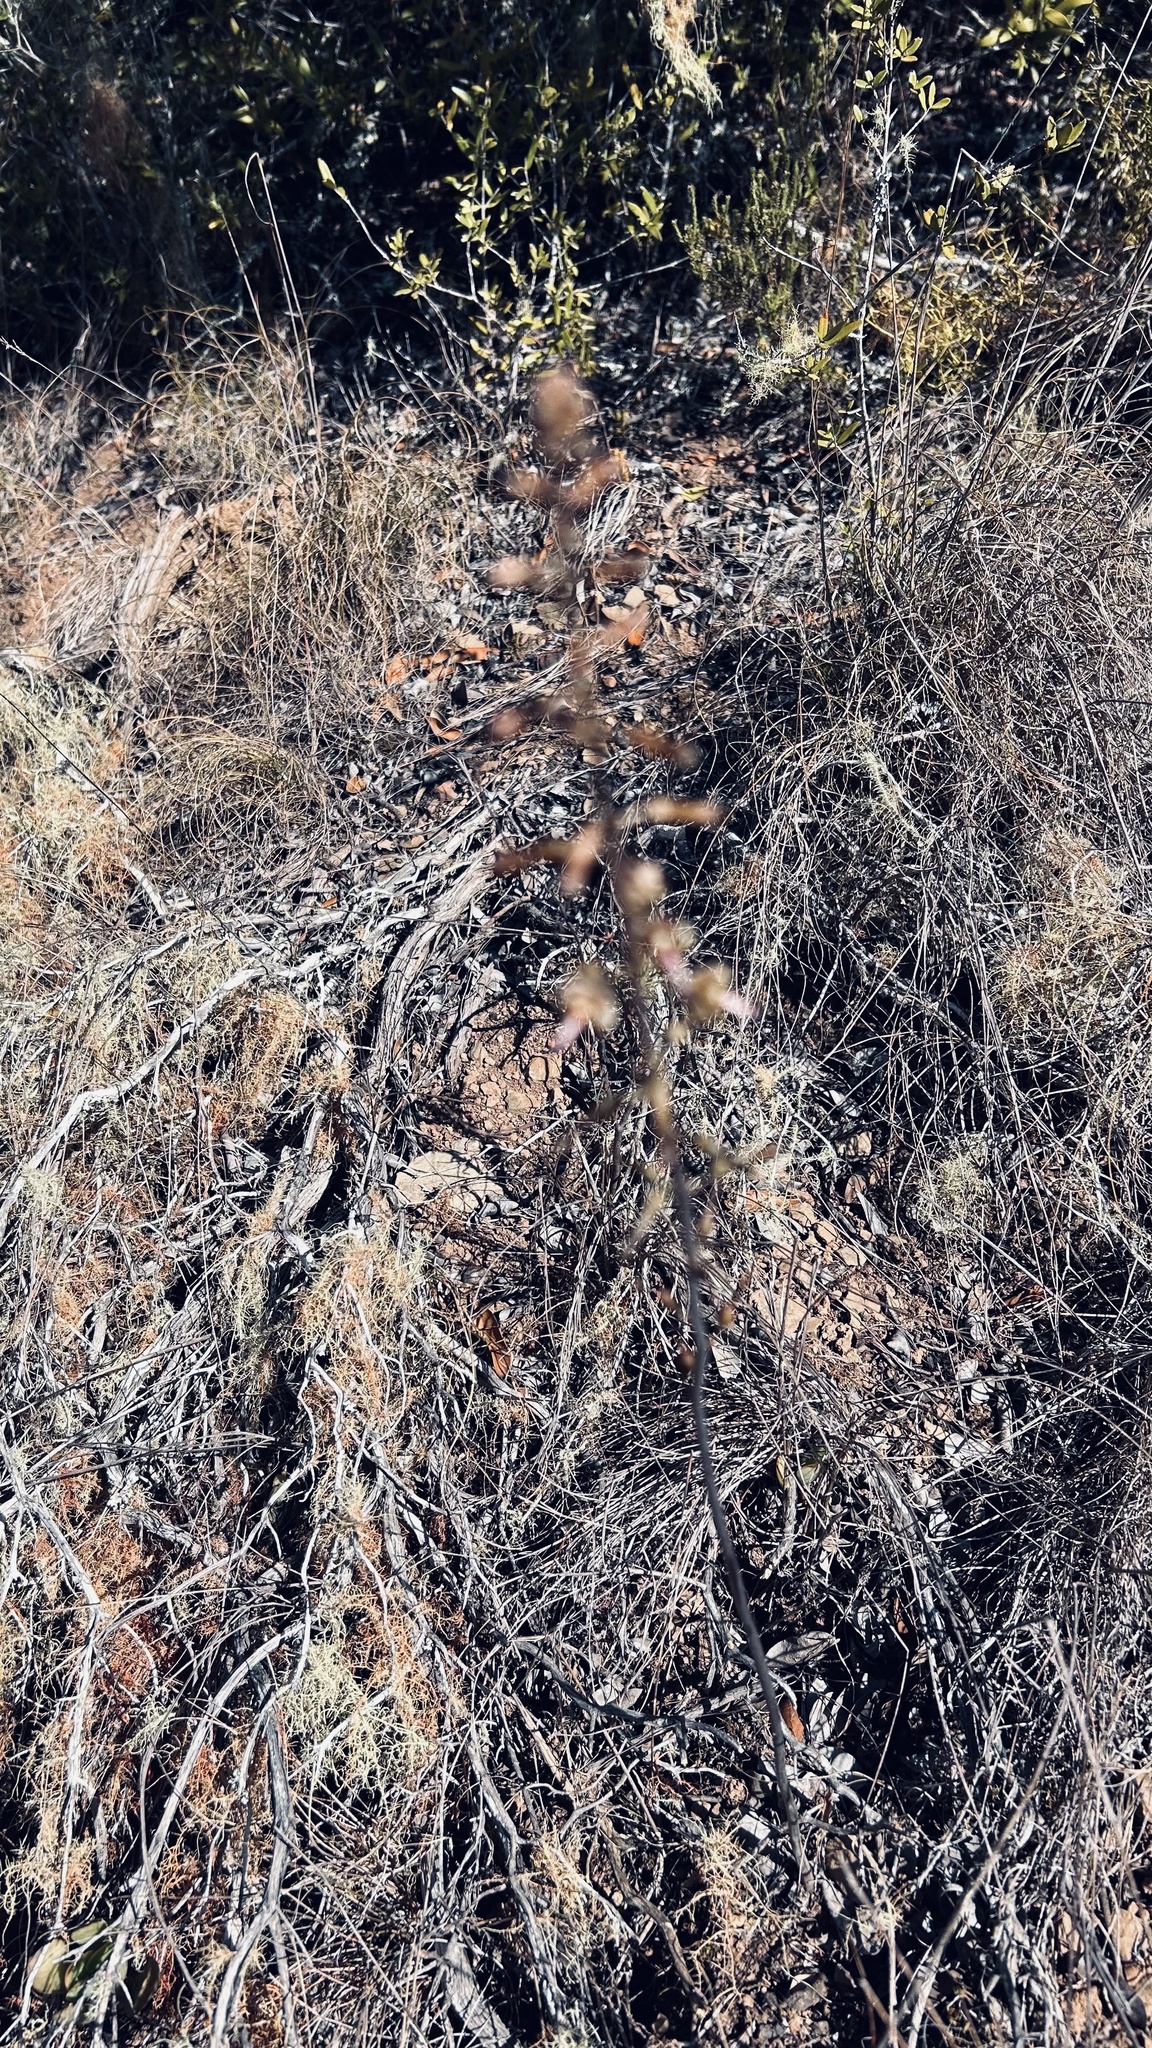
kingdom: Plantae
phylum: Tracheophyta
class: Liliopsida
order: Asparagales
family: Asparagaceae
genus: Drimia
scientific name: Drimia elata
